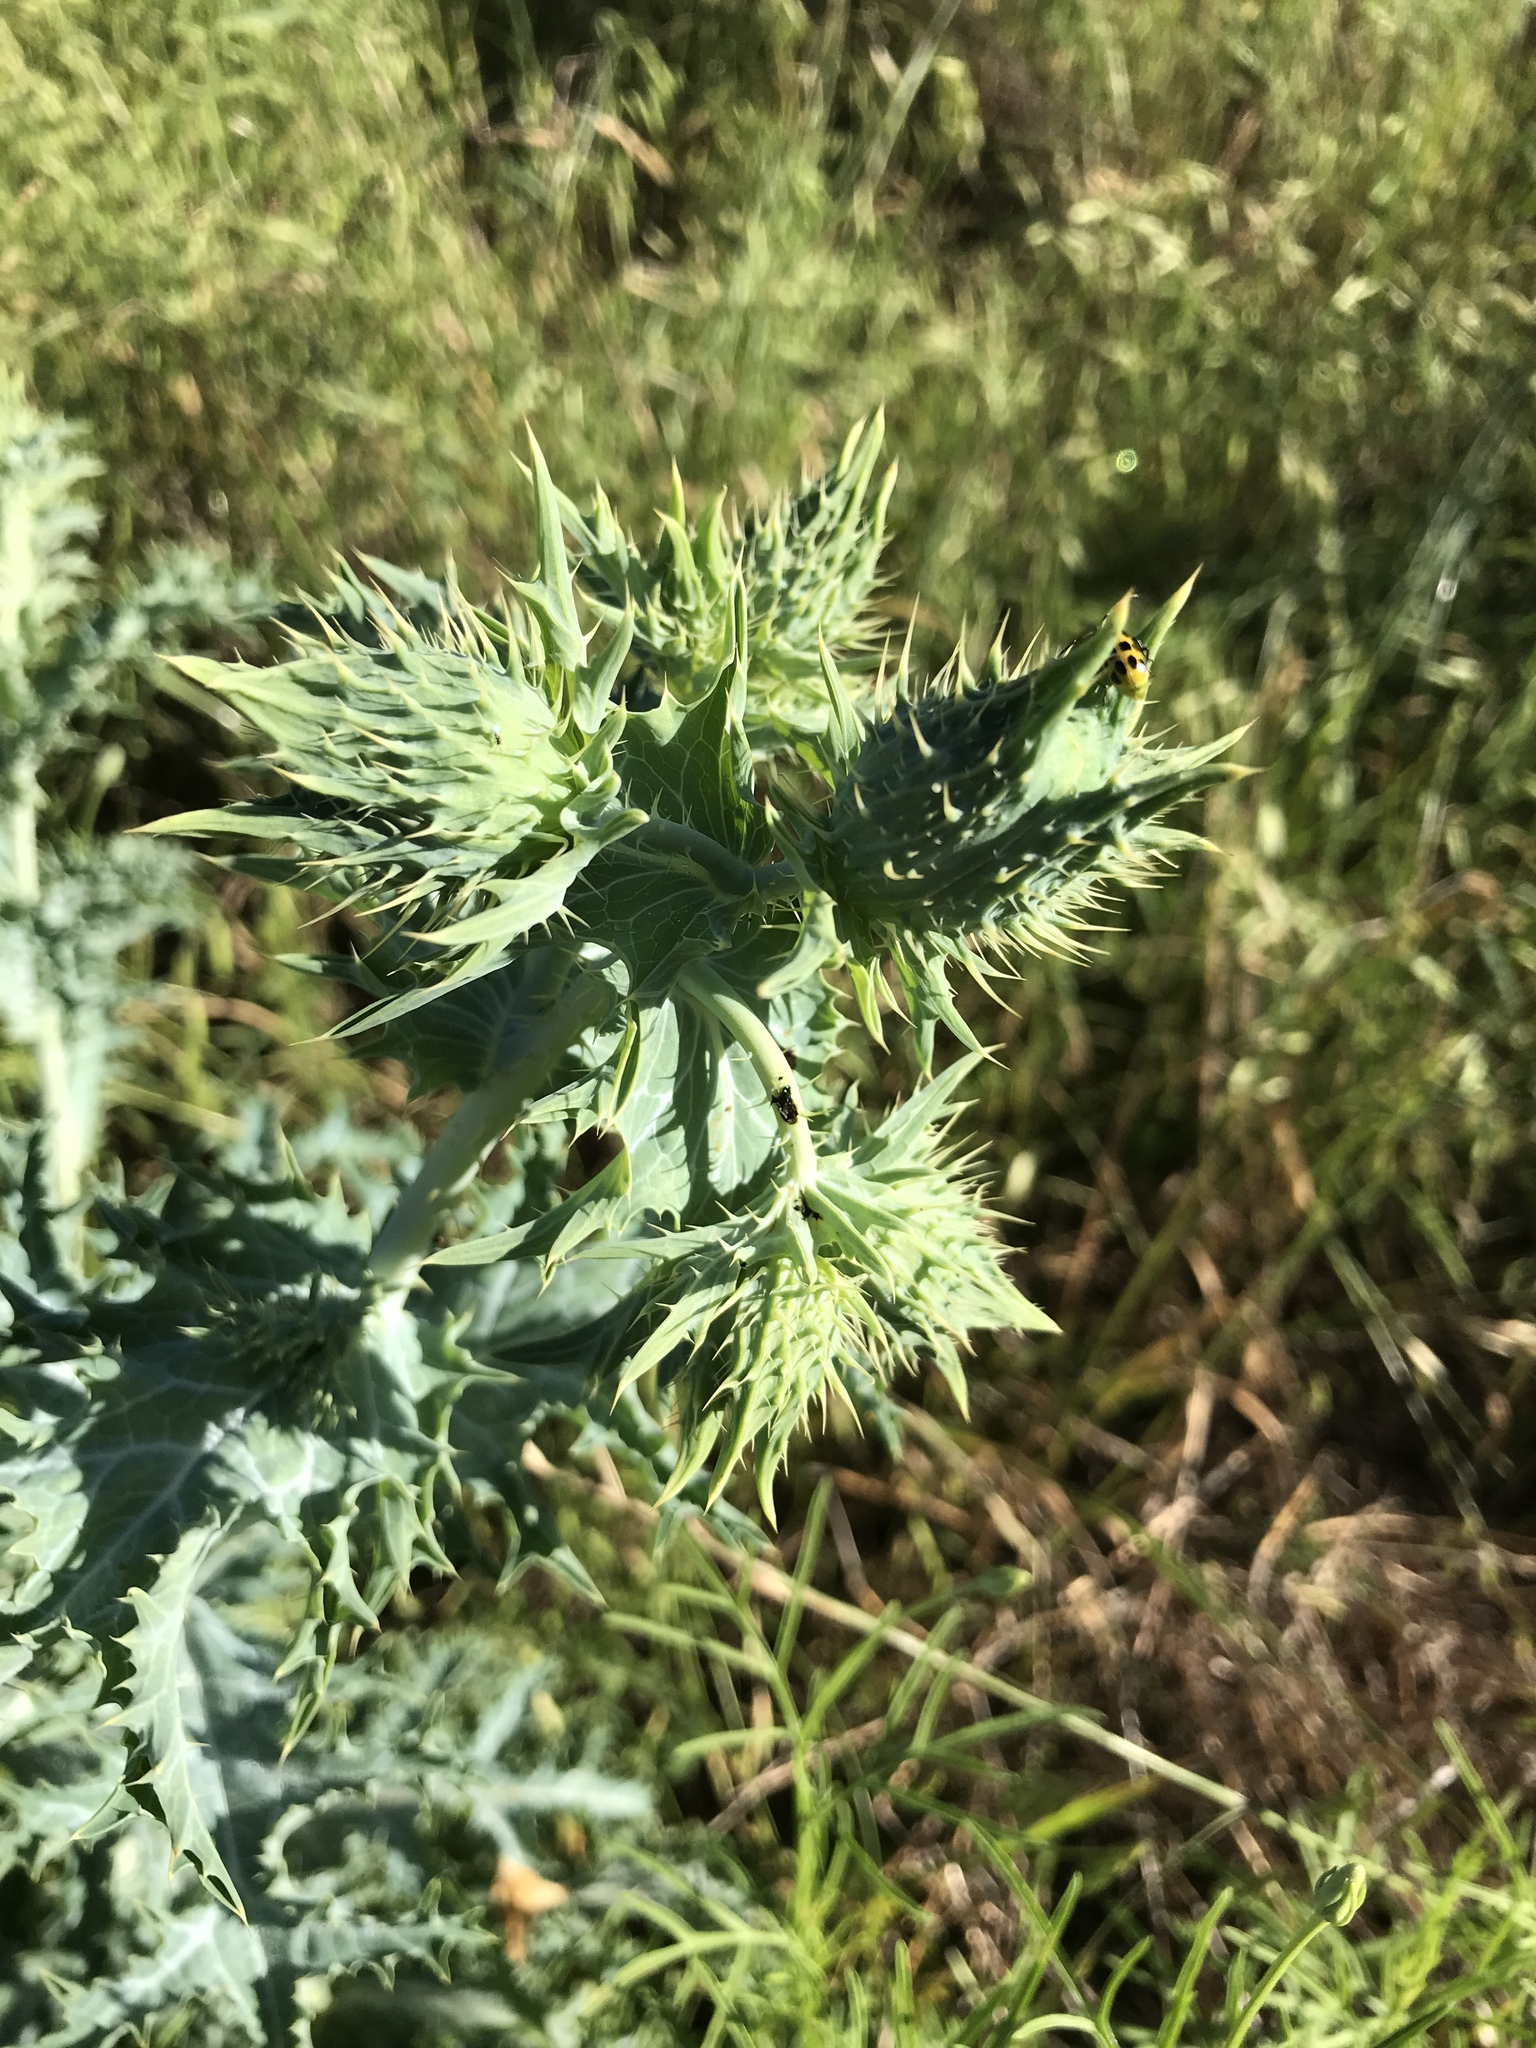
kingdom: Plantae
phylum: Tracheophyta
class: Magnoliopsida
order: Ranunculales
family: Papaveraceae
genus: Argemone
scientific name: Argemone albiflora
